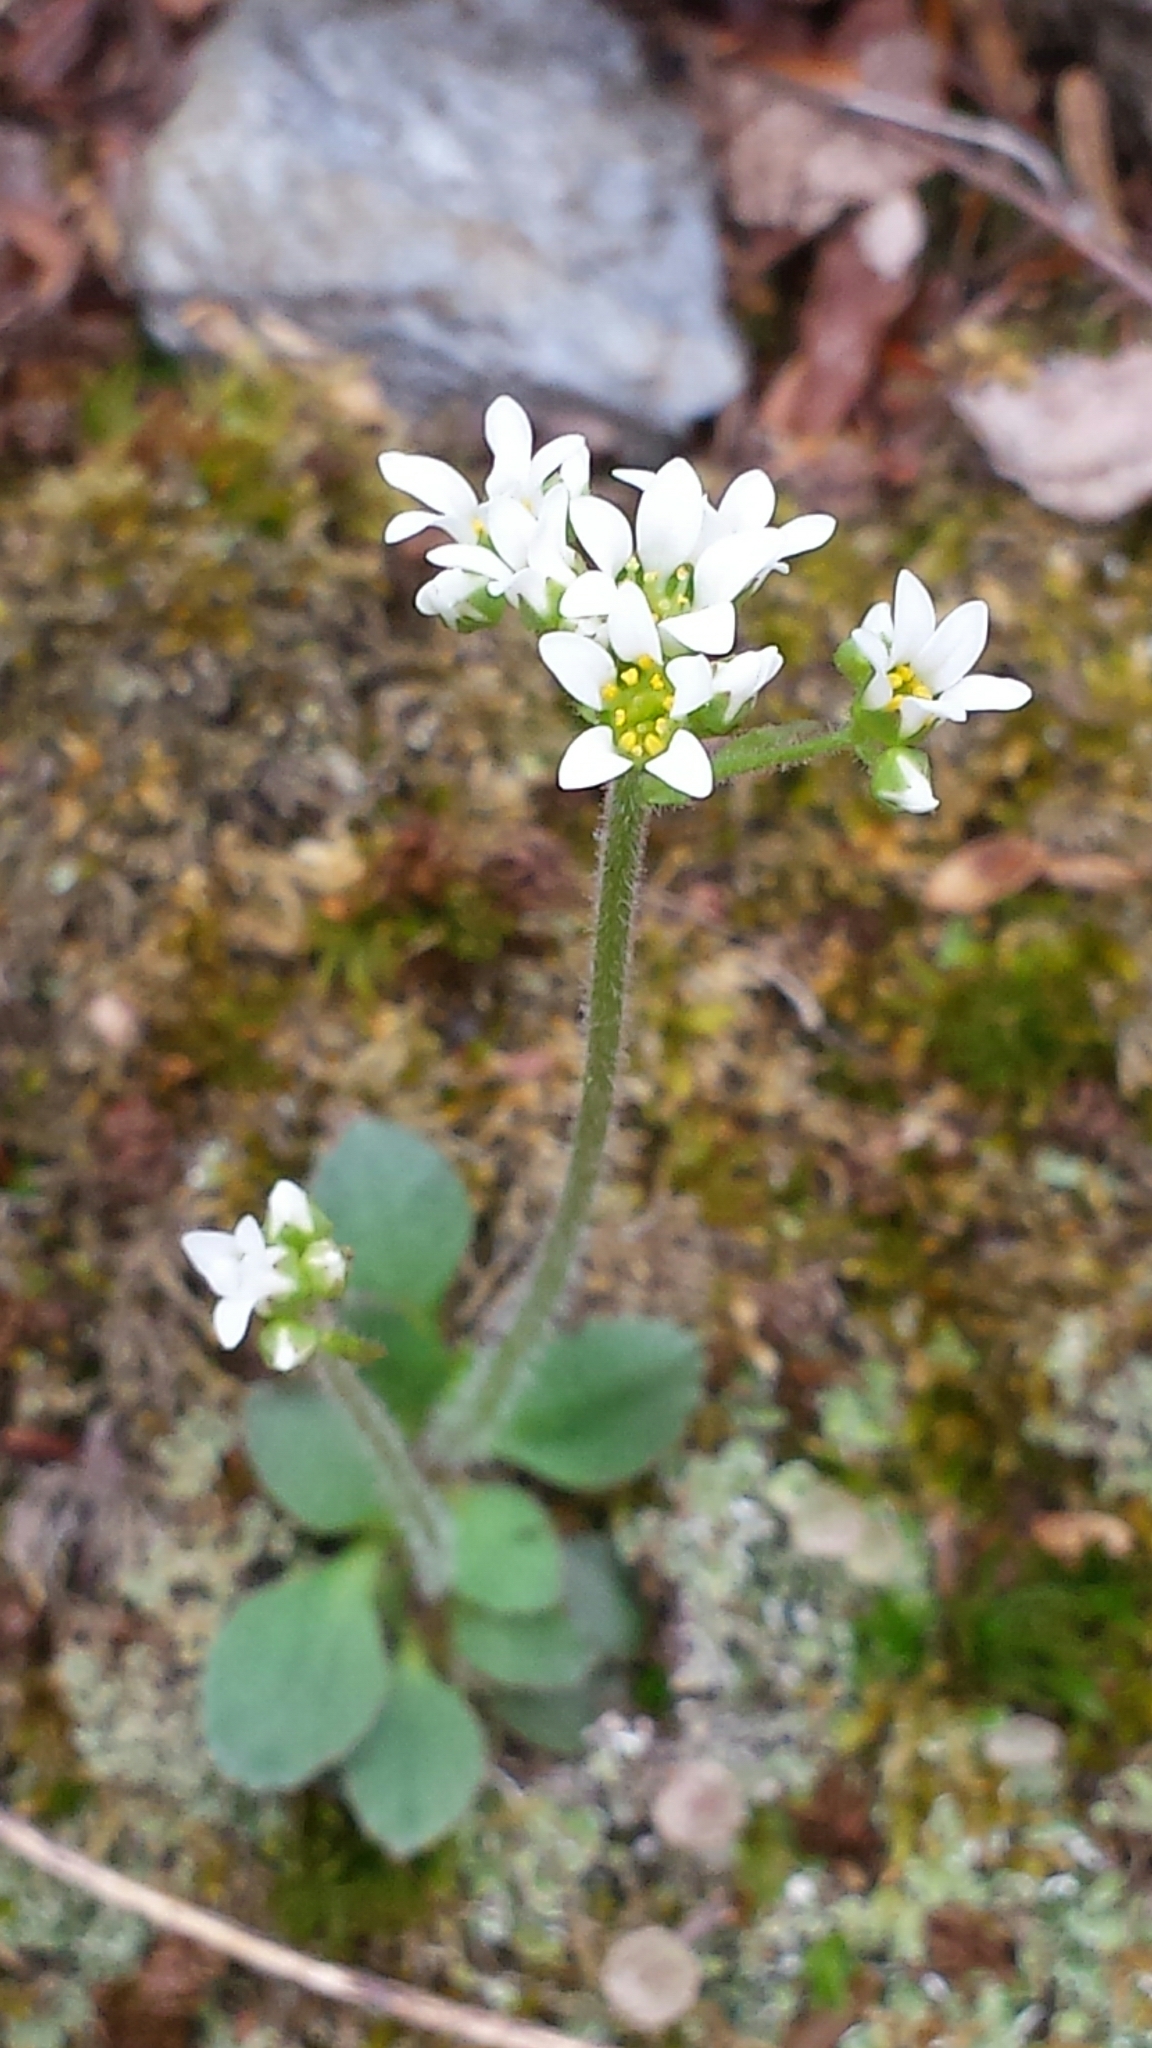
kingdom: Plantae
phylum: Tracheophyta
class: Magnoliopsida
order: Saxifragales
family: Saxifragaceae
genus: Micranthes
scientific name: Micranthes virginiensis
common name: Early saxifrage
